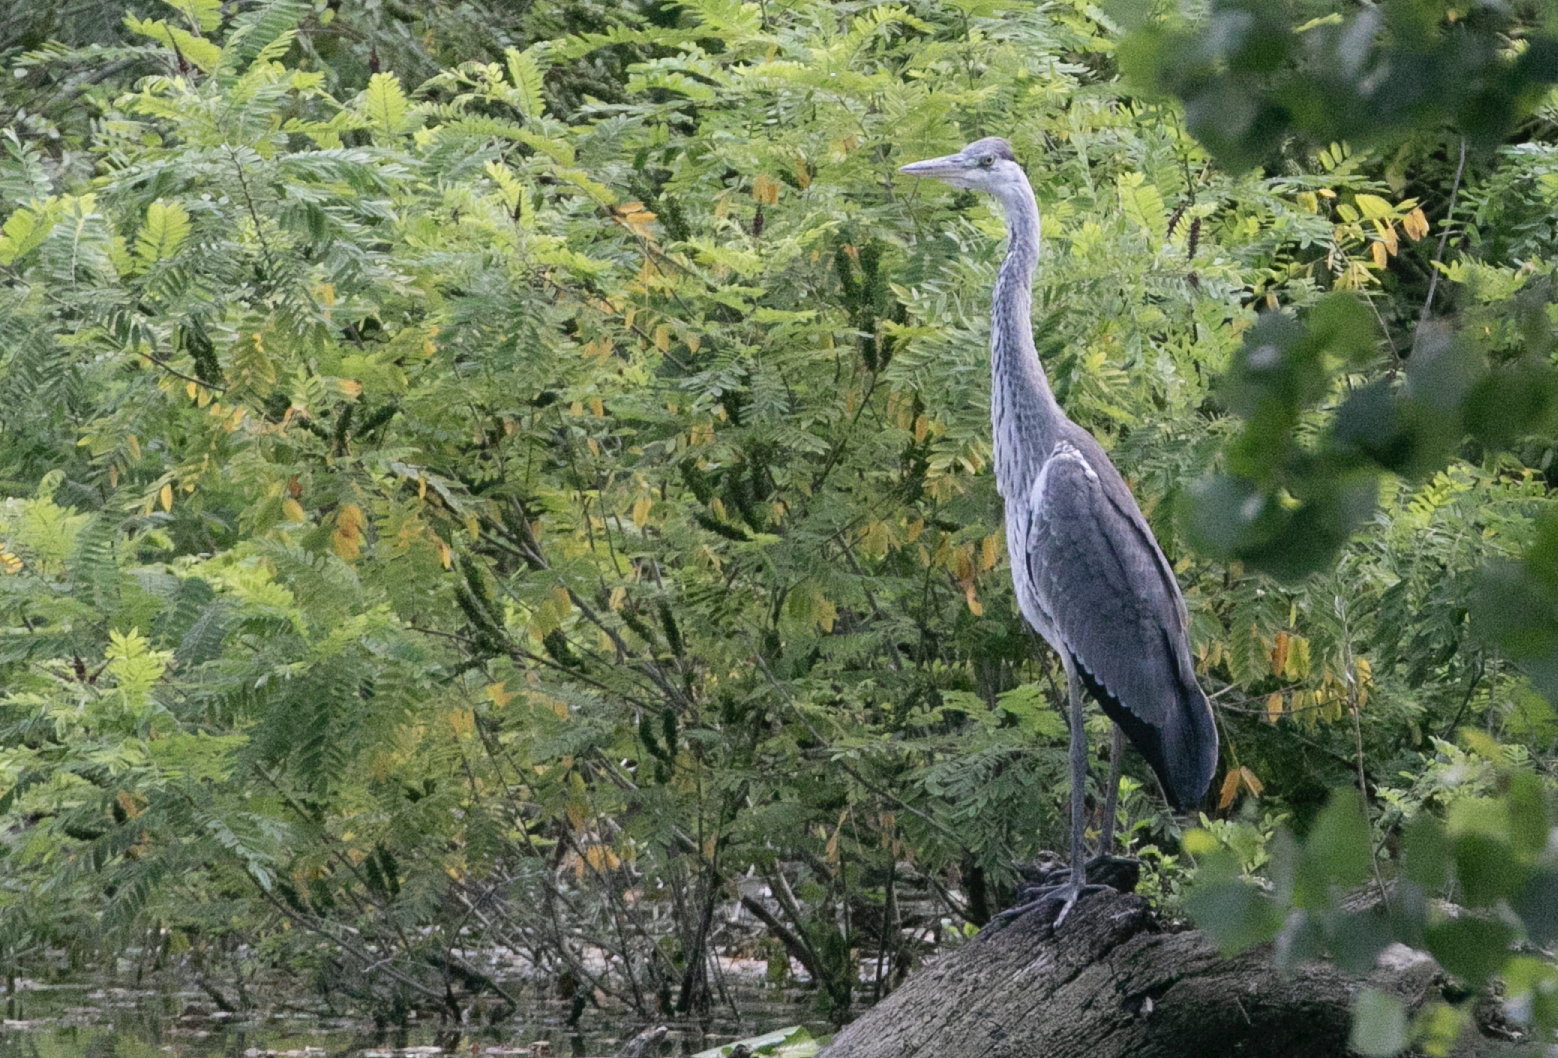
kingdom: Animalia
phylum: Chordata
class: Aves
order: Pelecaniformes
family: Ardeidae
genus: Ardea
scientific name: Ardea cinerea
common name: Grey heron
